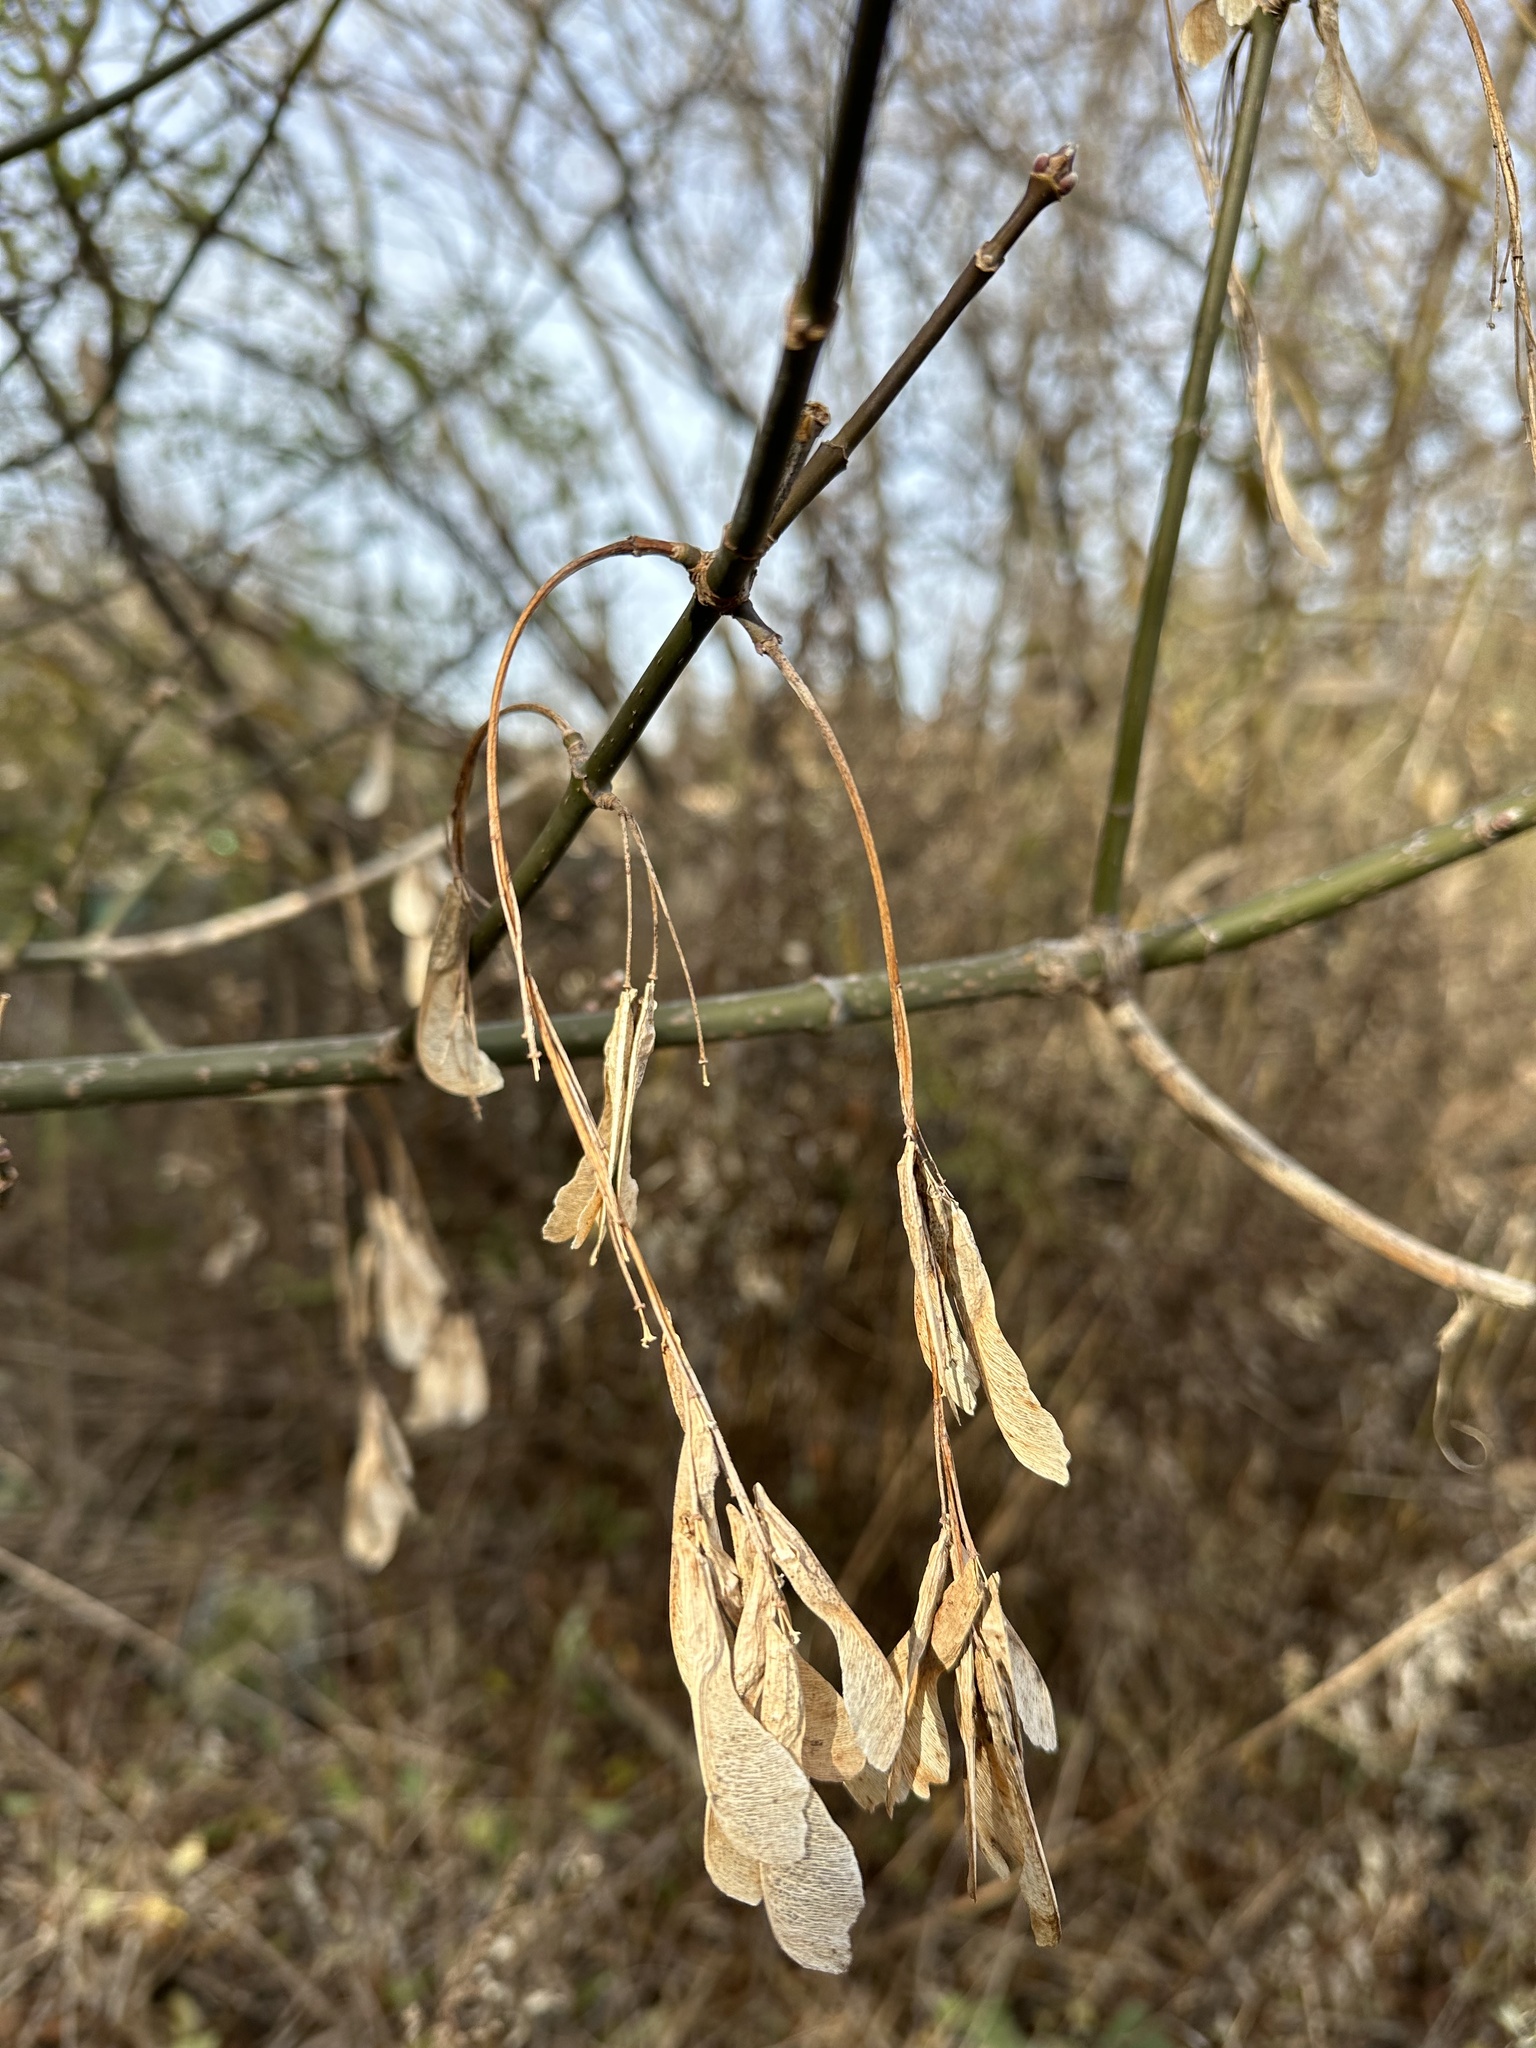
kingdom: Plantae
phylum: Tracheophyta
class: Magnoliopsida
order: Sapindales
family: Sapindaceae
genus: Acer
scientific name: Acer negundo
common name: Ashleaf maple
